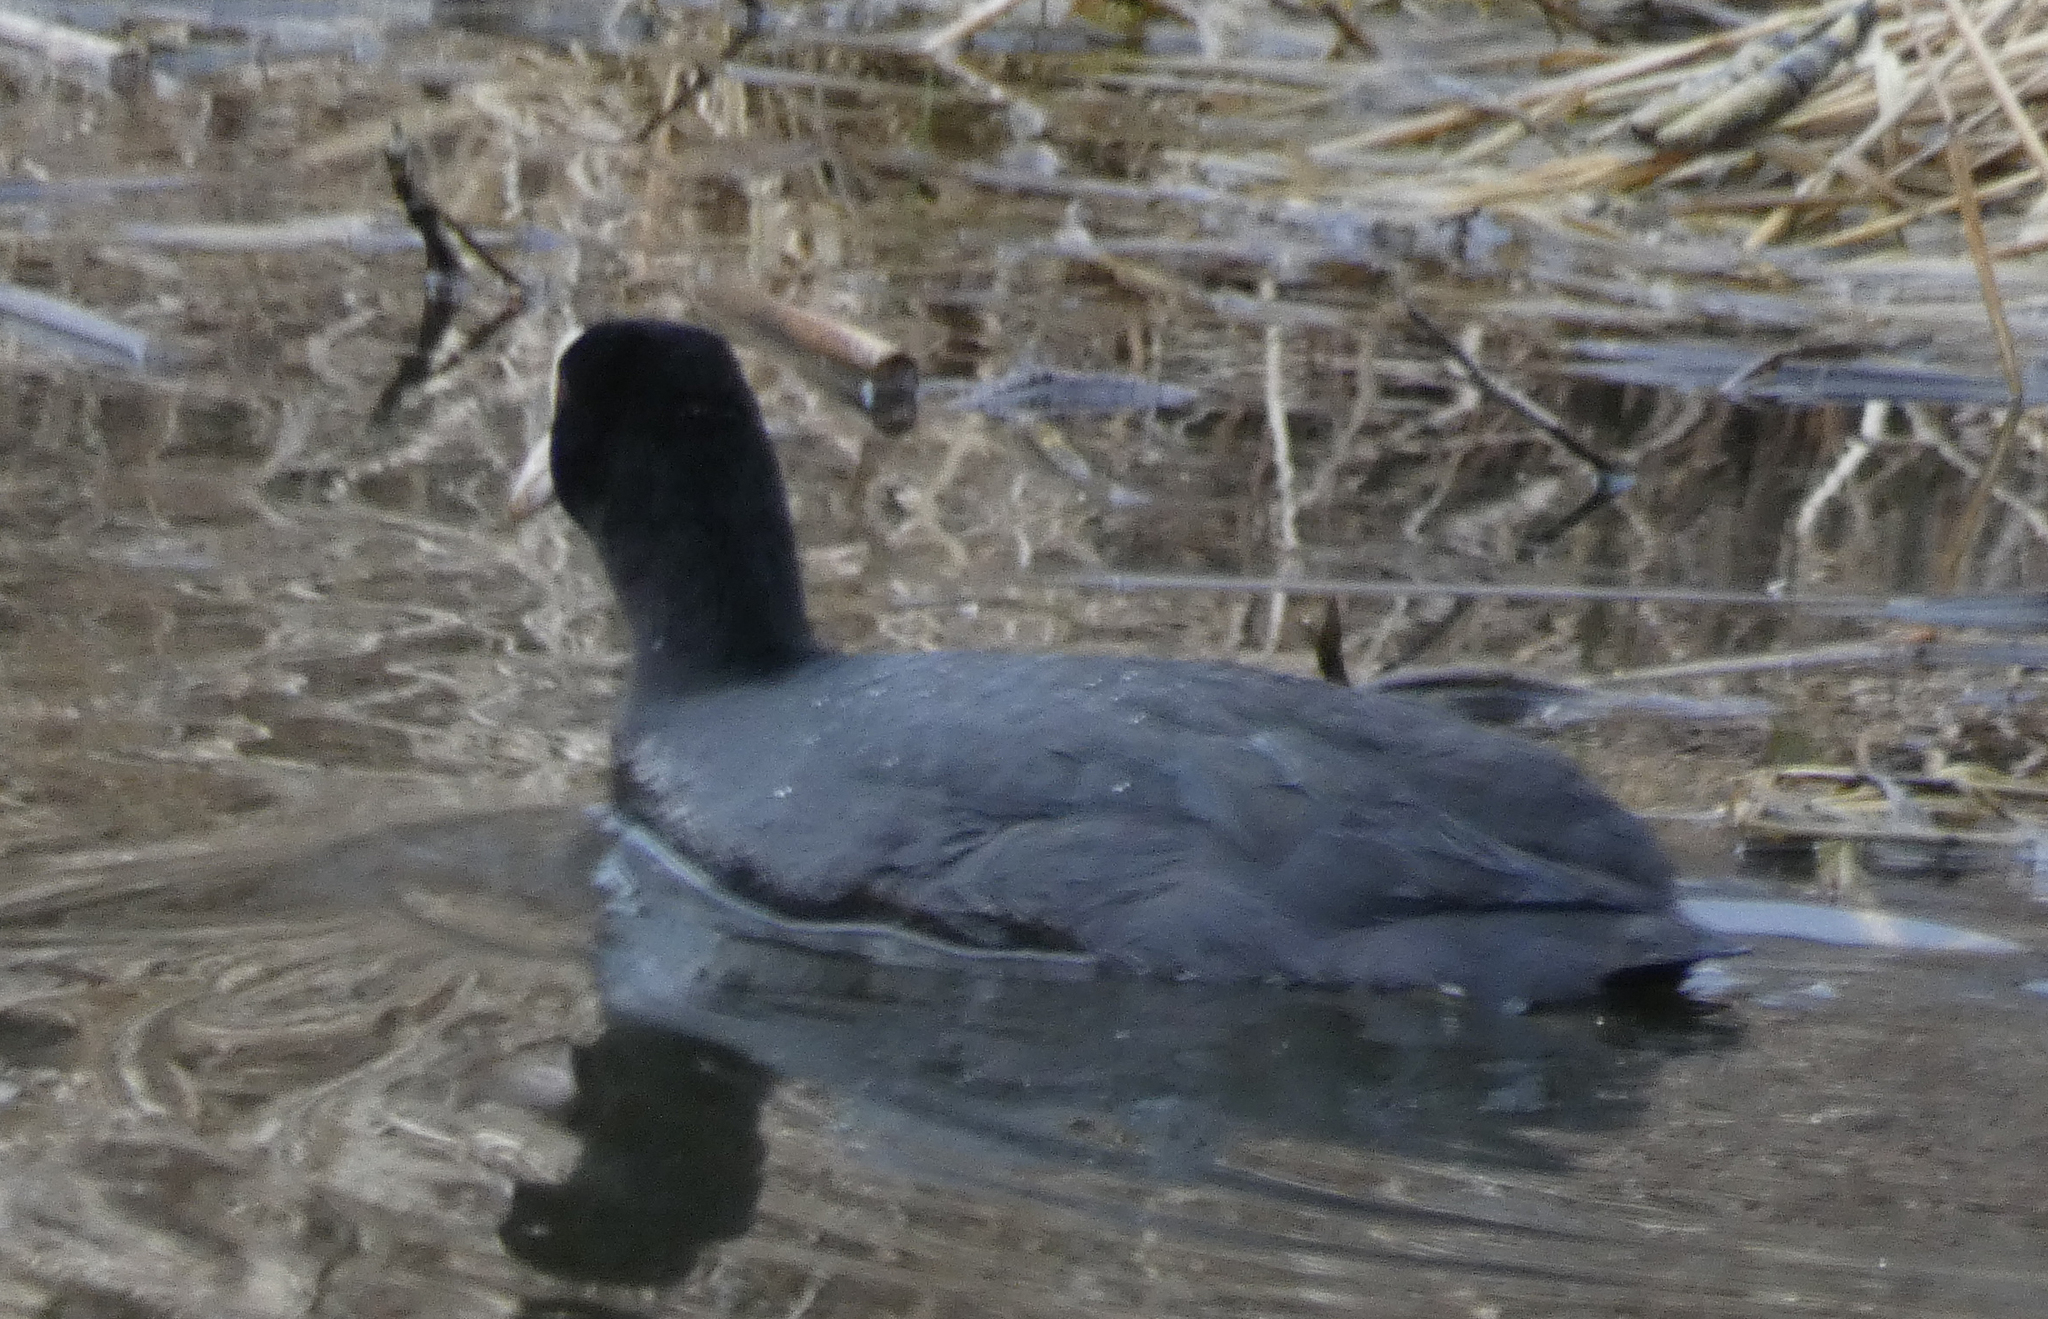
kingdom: Animalia
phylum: Chordata
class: Aves
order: Gruiformes
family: Rallidae
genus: Fulica
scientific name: Fulica atra
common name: Eurasian coot
